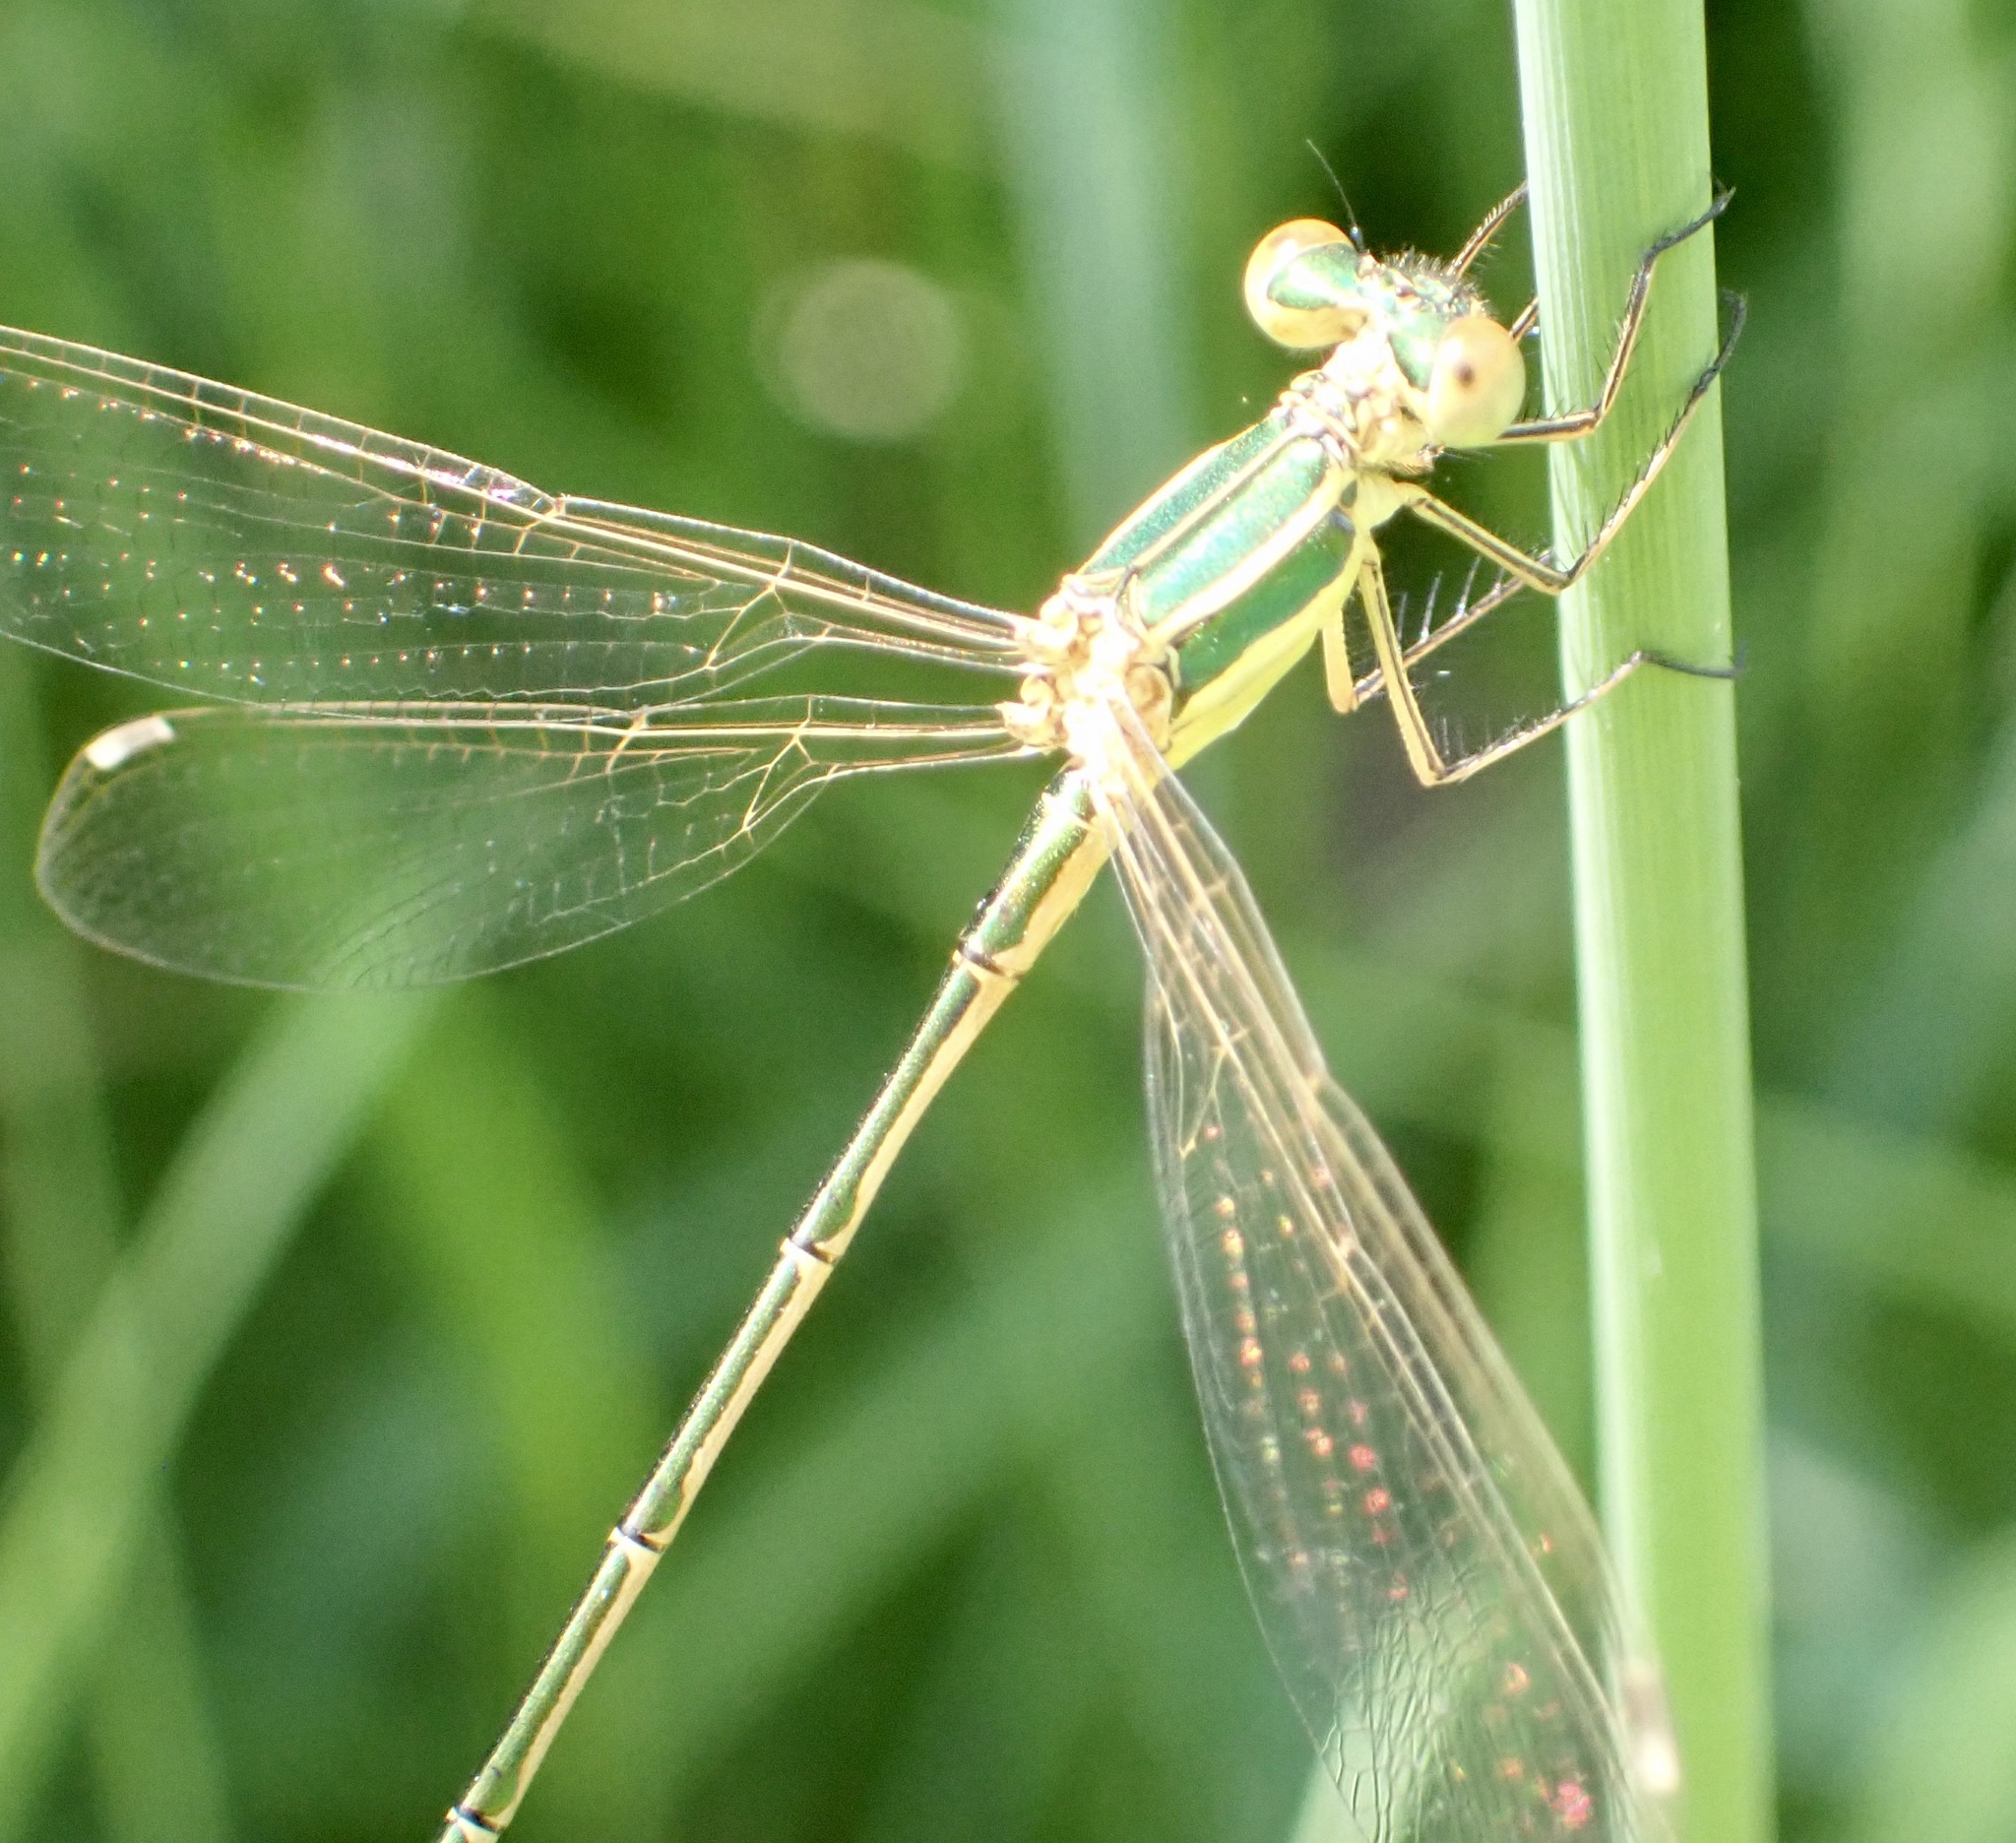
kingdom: Animalia
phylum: Arthropoda
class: Insecta
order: Odonata
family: Lestidae
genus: Lestes
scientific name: Lestes barbarus
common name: Migrant spreadwing
